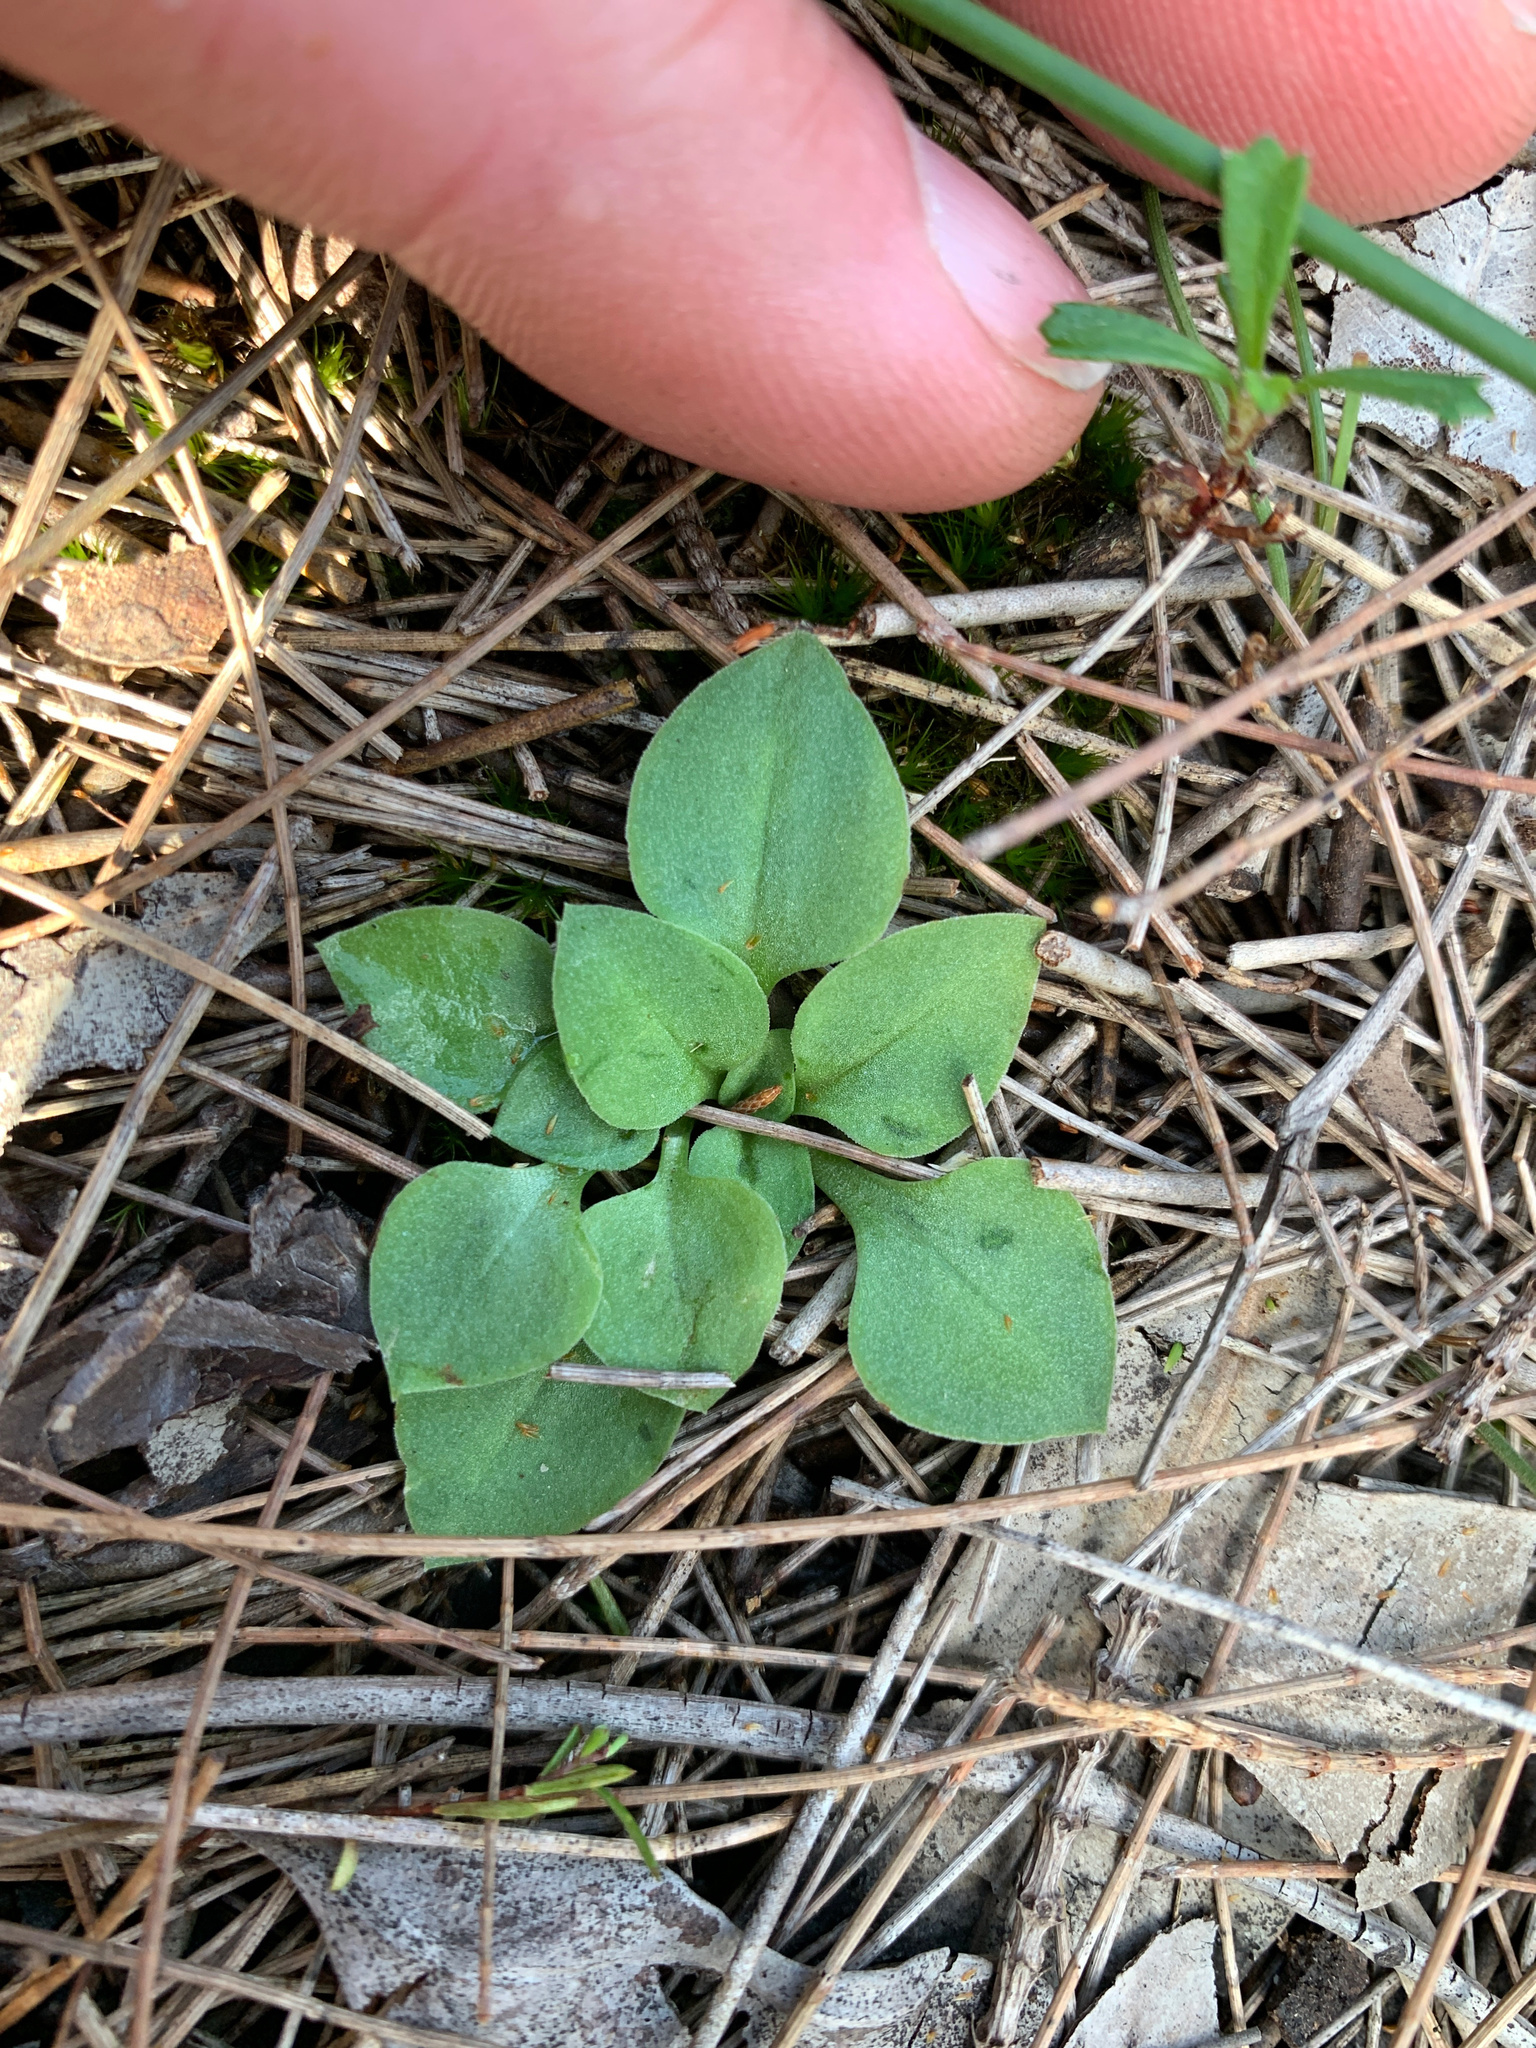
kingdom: Plantae
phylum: Tracheophyta
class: Liliopsida
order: Asparagales
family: Orchidaceae
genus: Pterostylis
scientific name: Pterostylis
